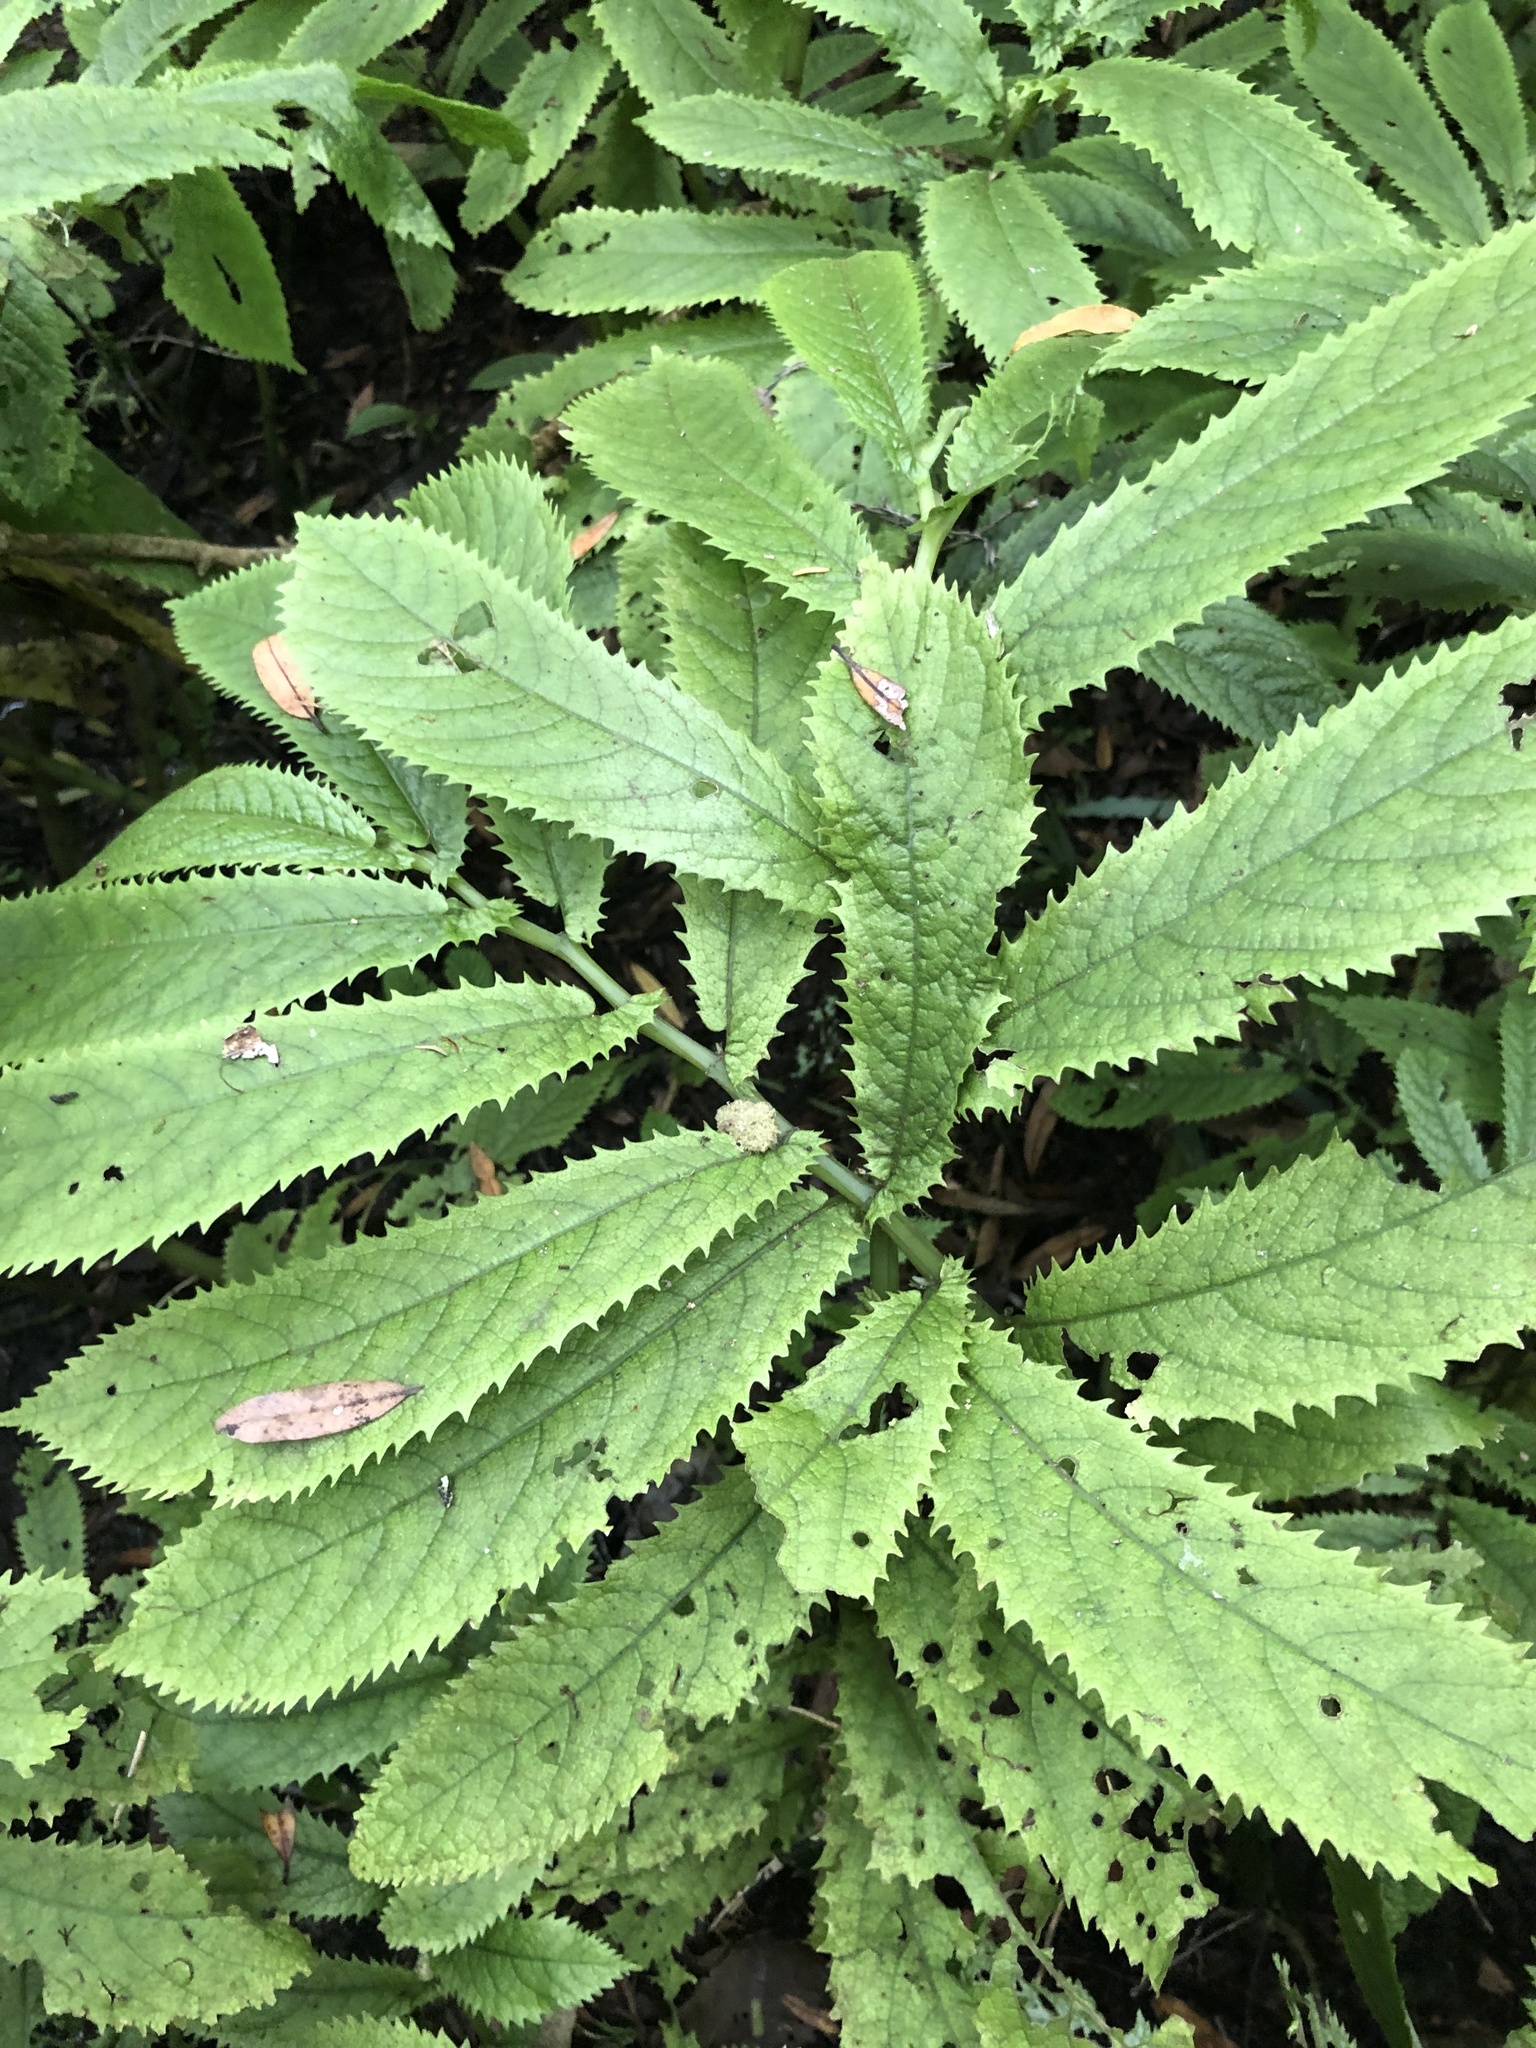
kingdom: Plantae
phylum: Tracheophyta
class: Magnoliopsida
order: Rosales
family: Urticaceae
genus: Elatostema
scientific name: Elatostema rugosum
